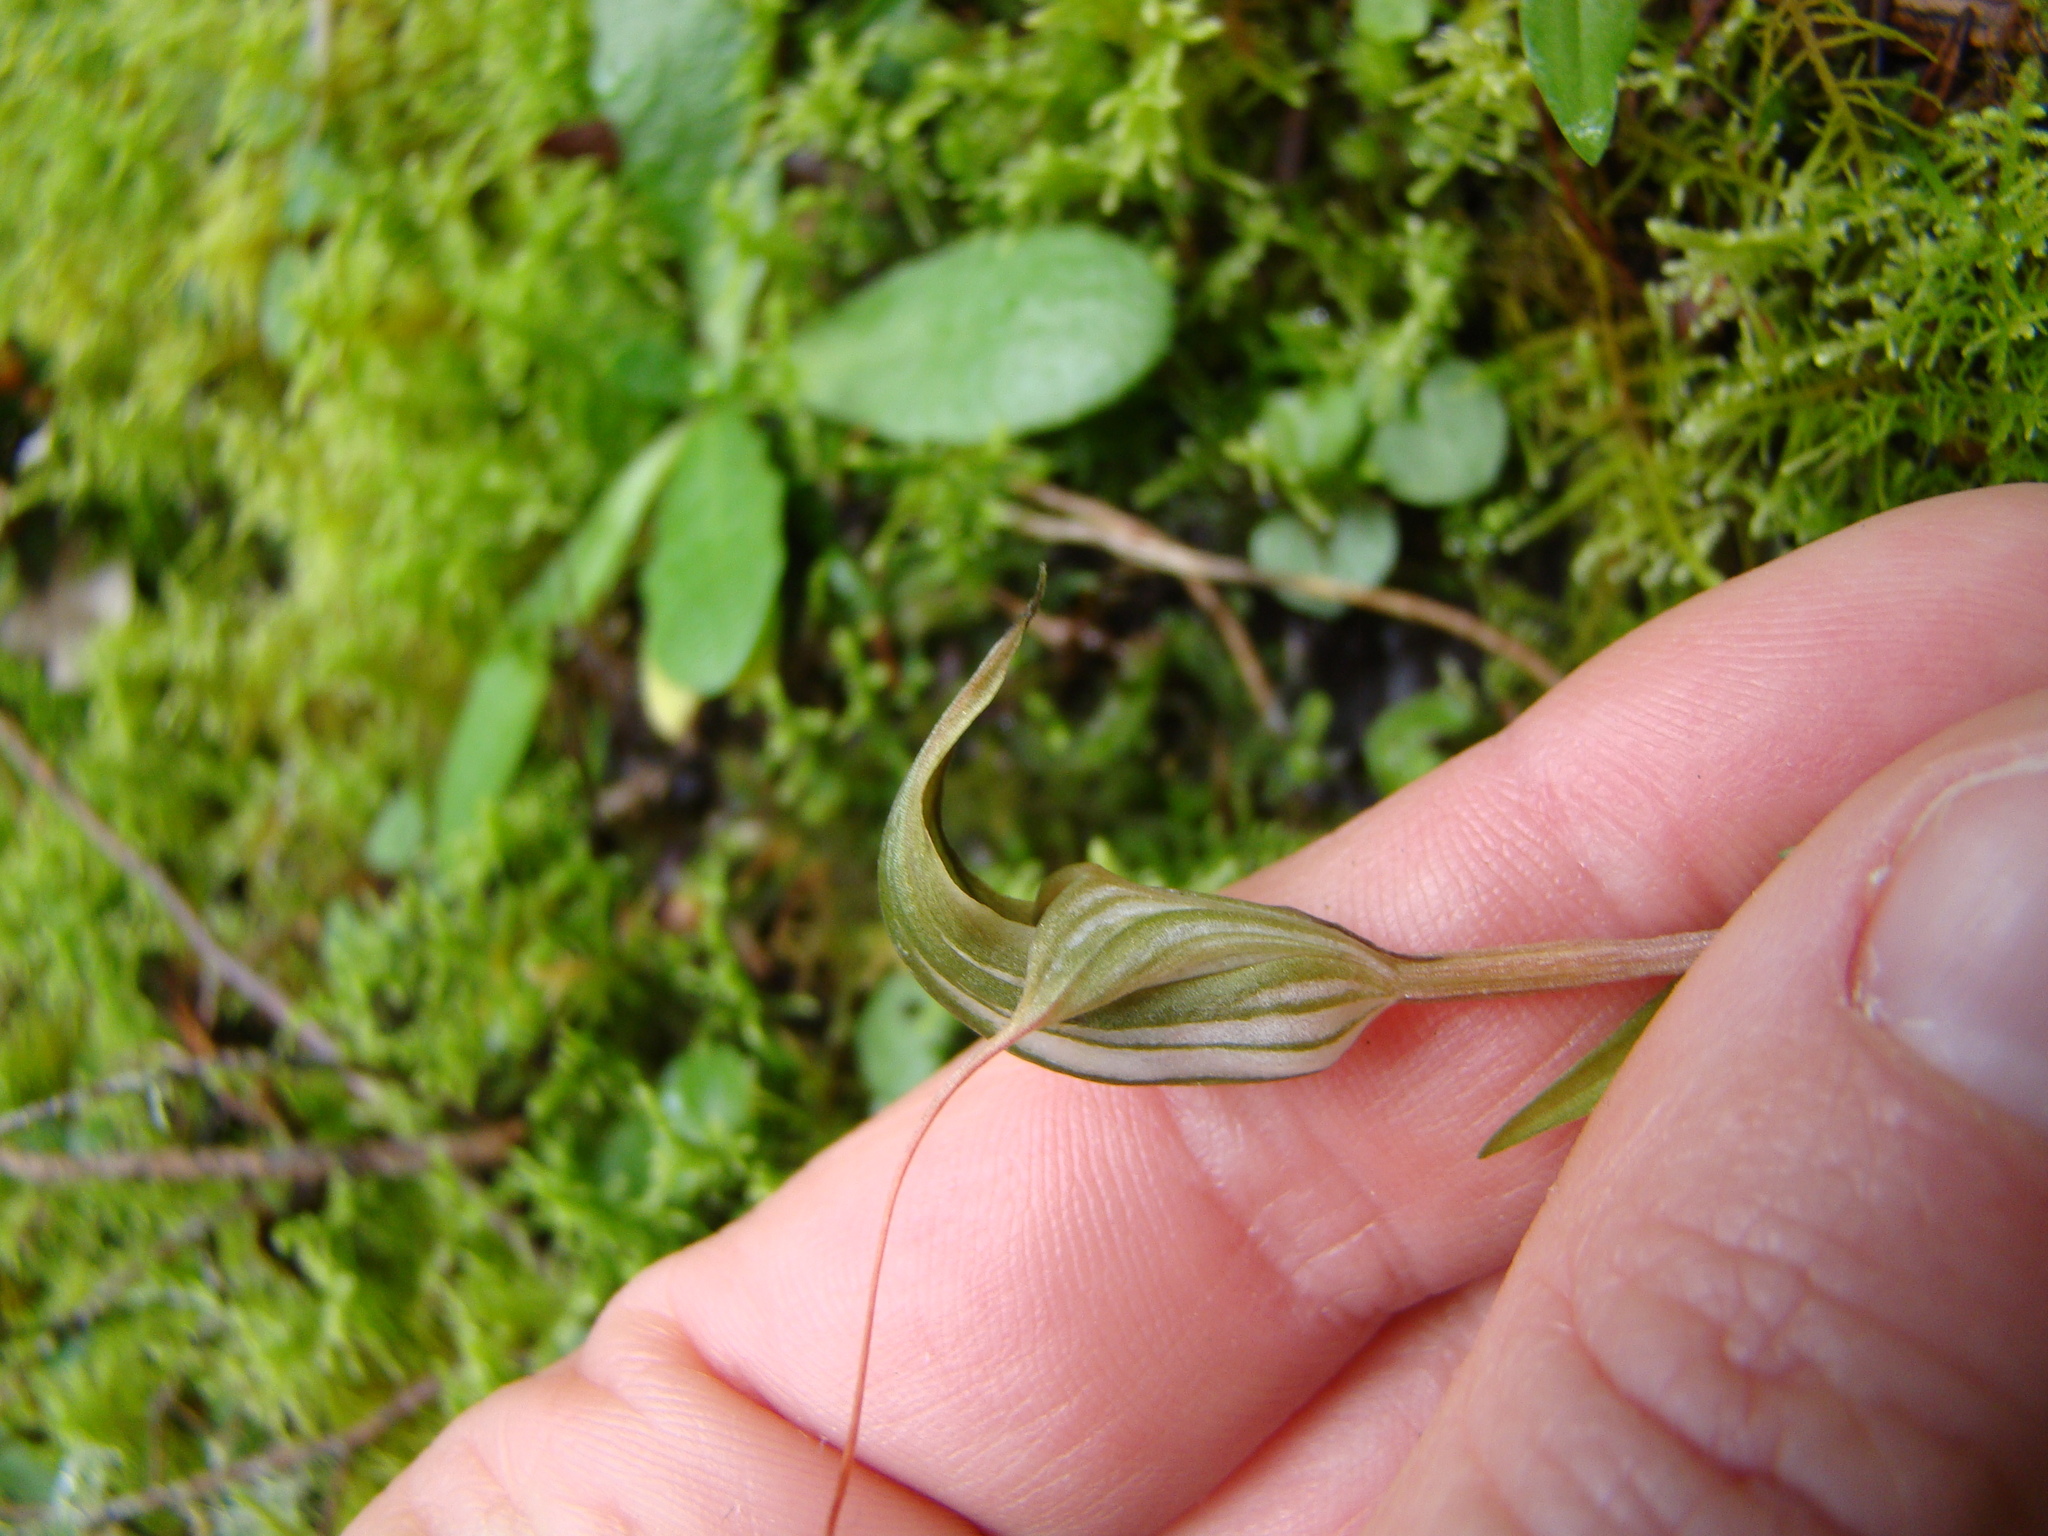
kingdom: Plantae
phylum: Tracheophyta
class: Liliopsida
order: Asparagales
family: Orchidaceae
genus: Pterostylis
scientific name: Pterostylis alobula
